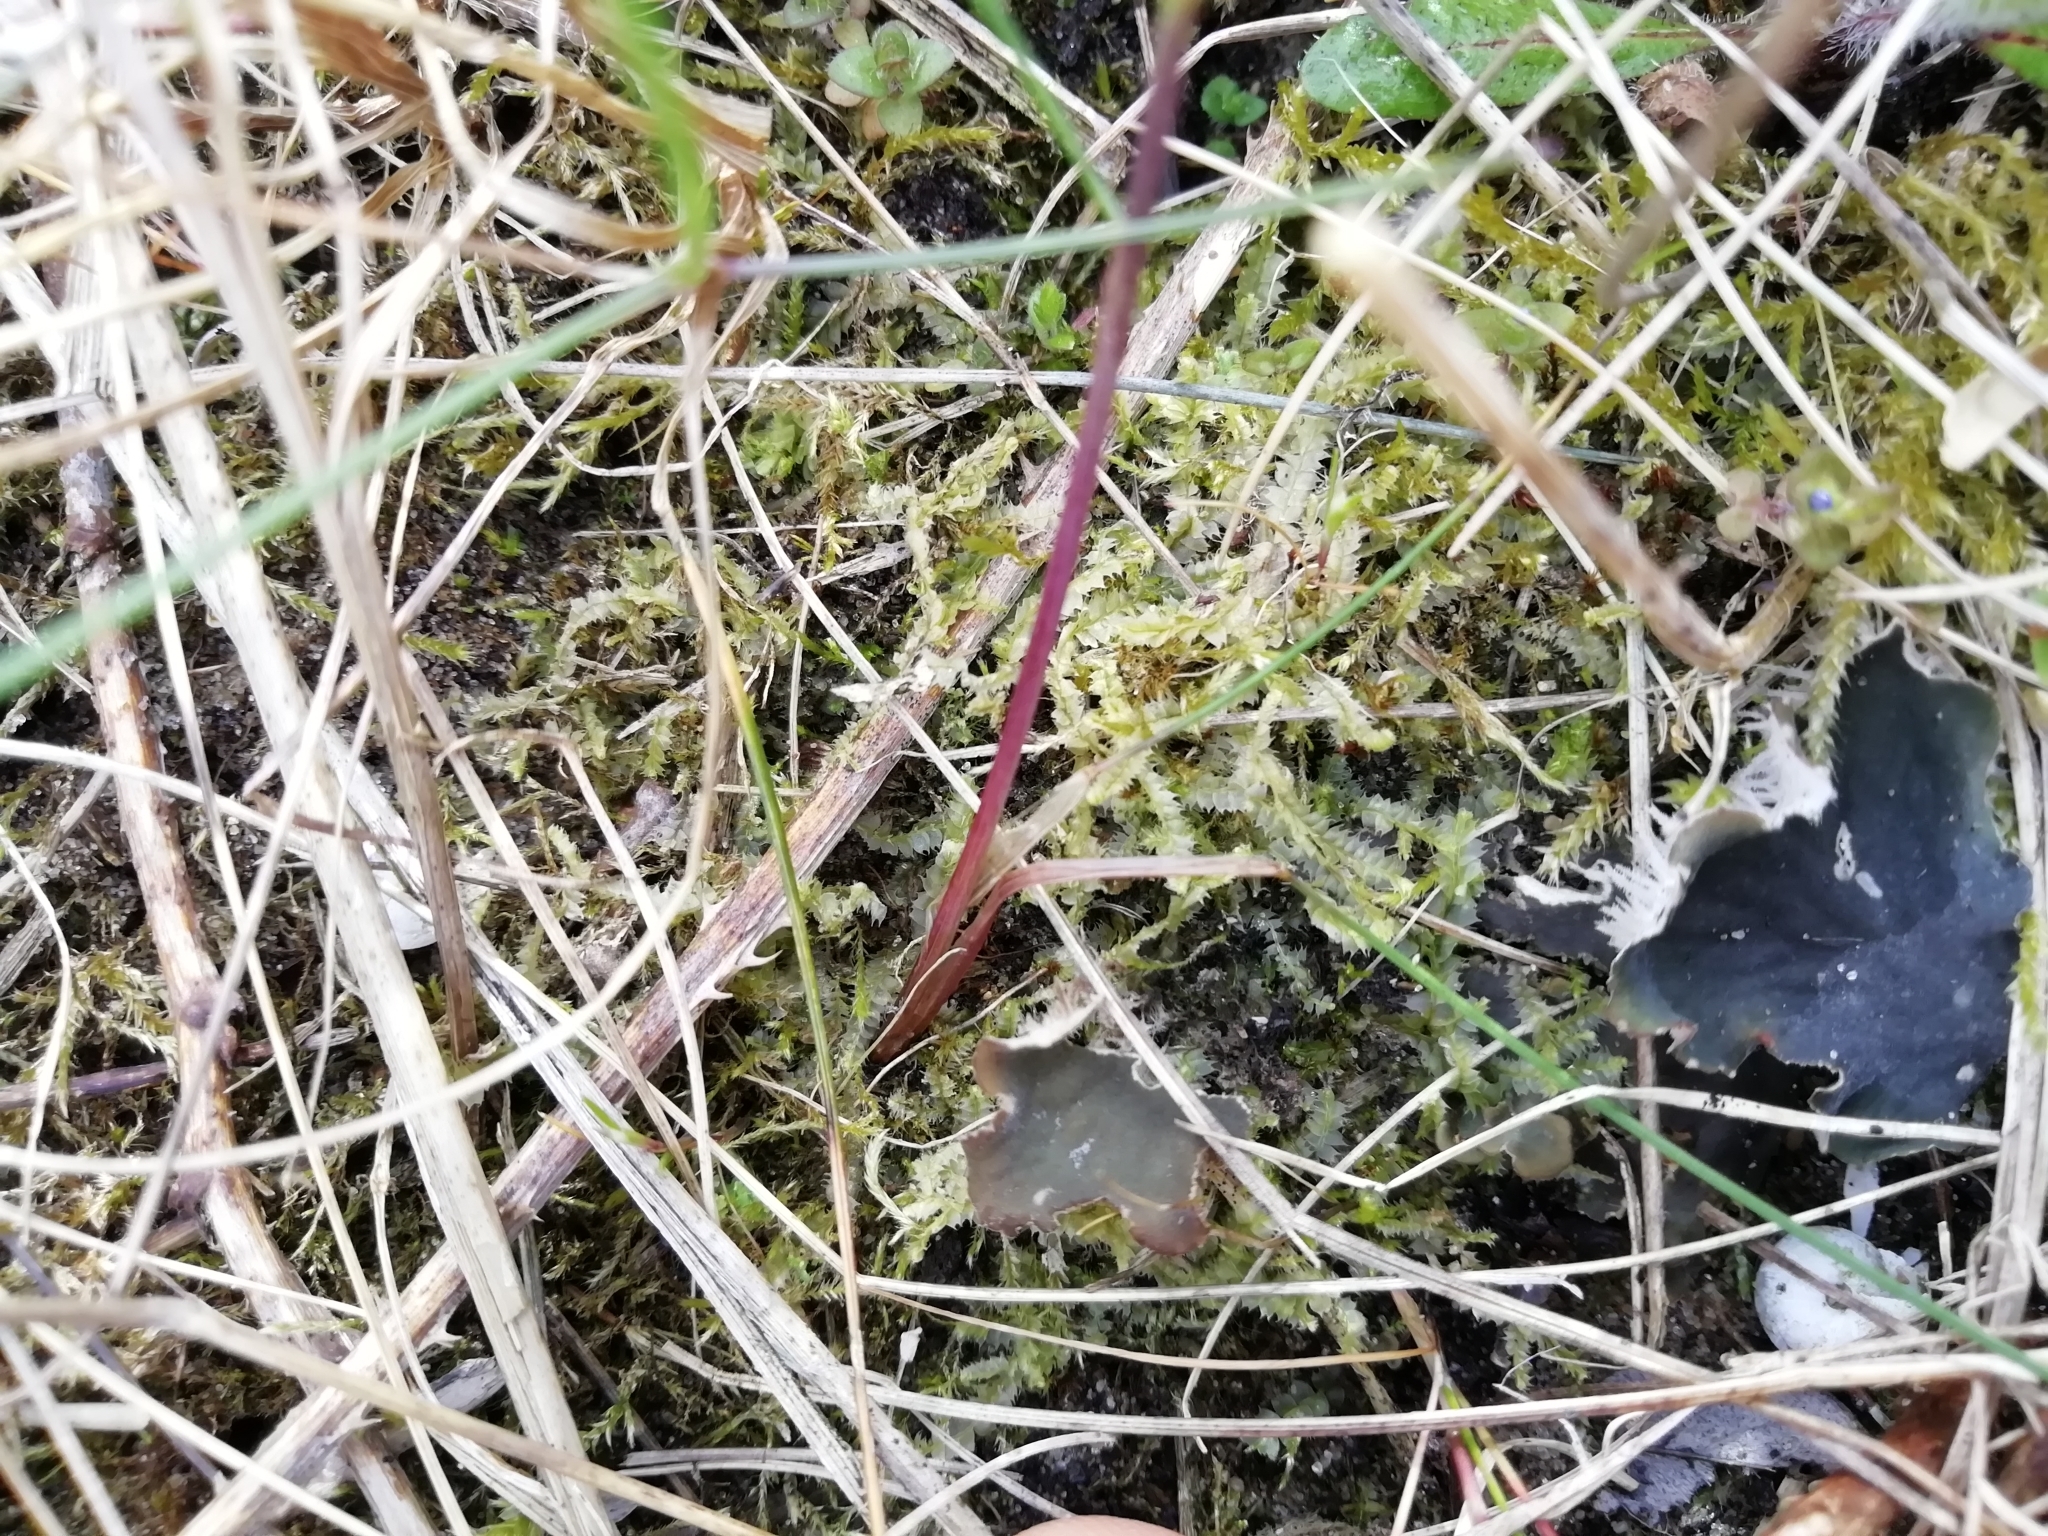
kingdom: Plantae
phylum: Marchantiophyta
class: Jungermanniopsida
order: Jungermanniales
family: Lophocoleaceae
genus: Lophocolea
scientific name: Lophocolea bidentata
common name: Bifid crestwort
